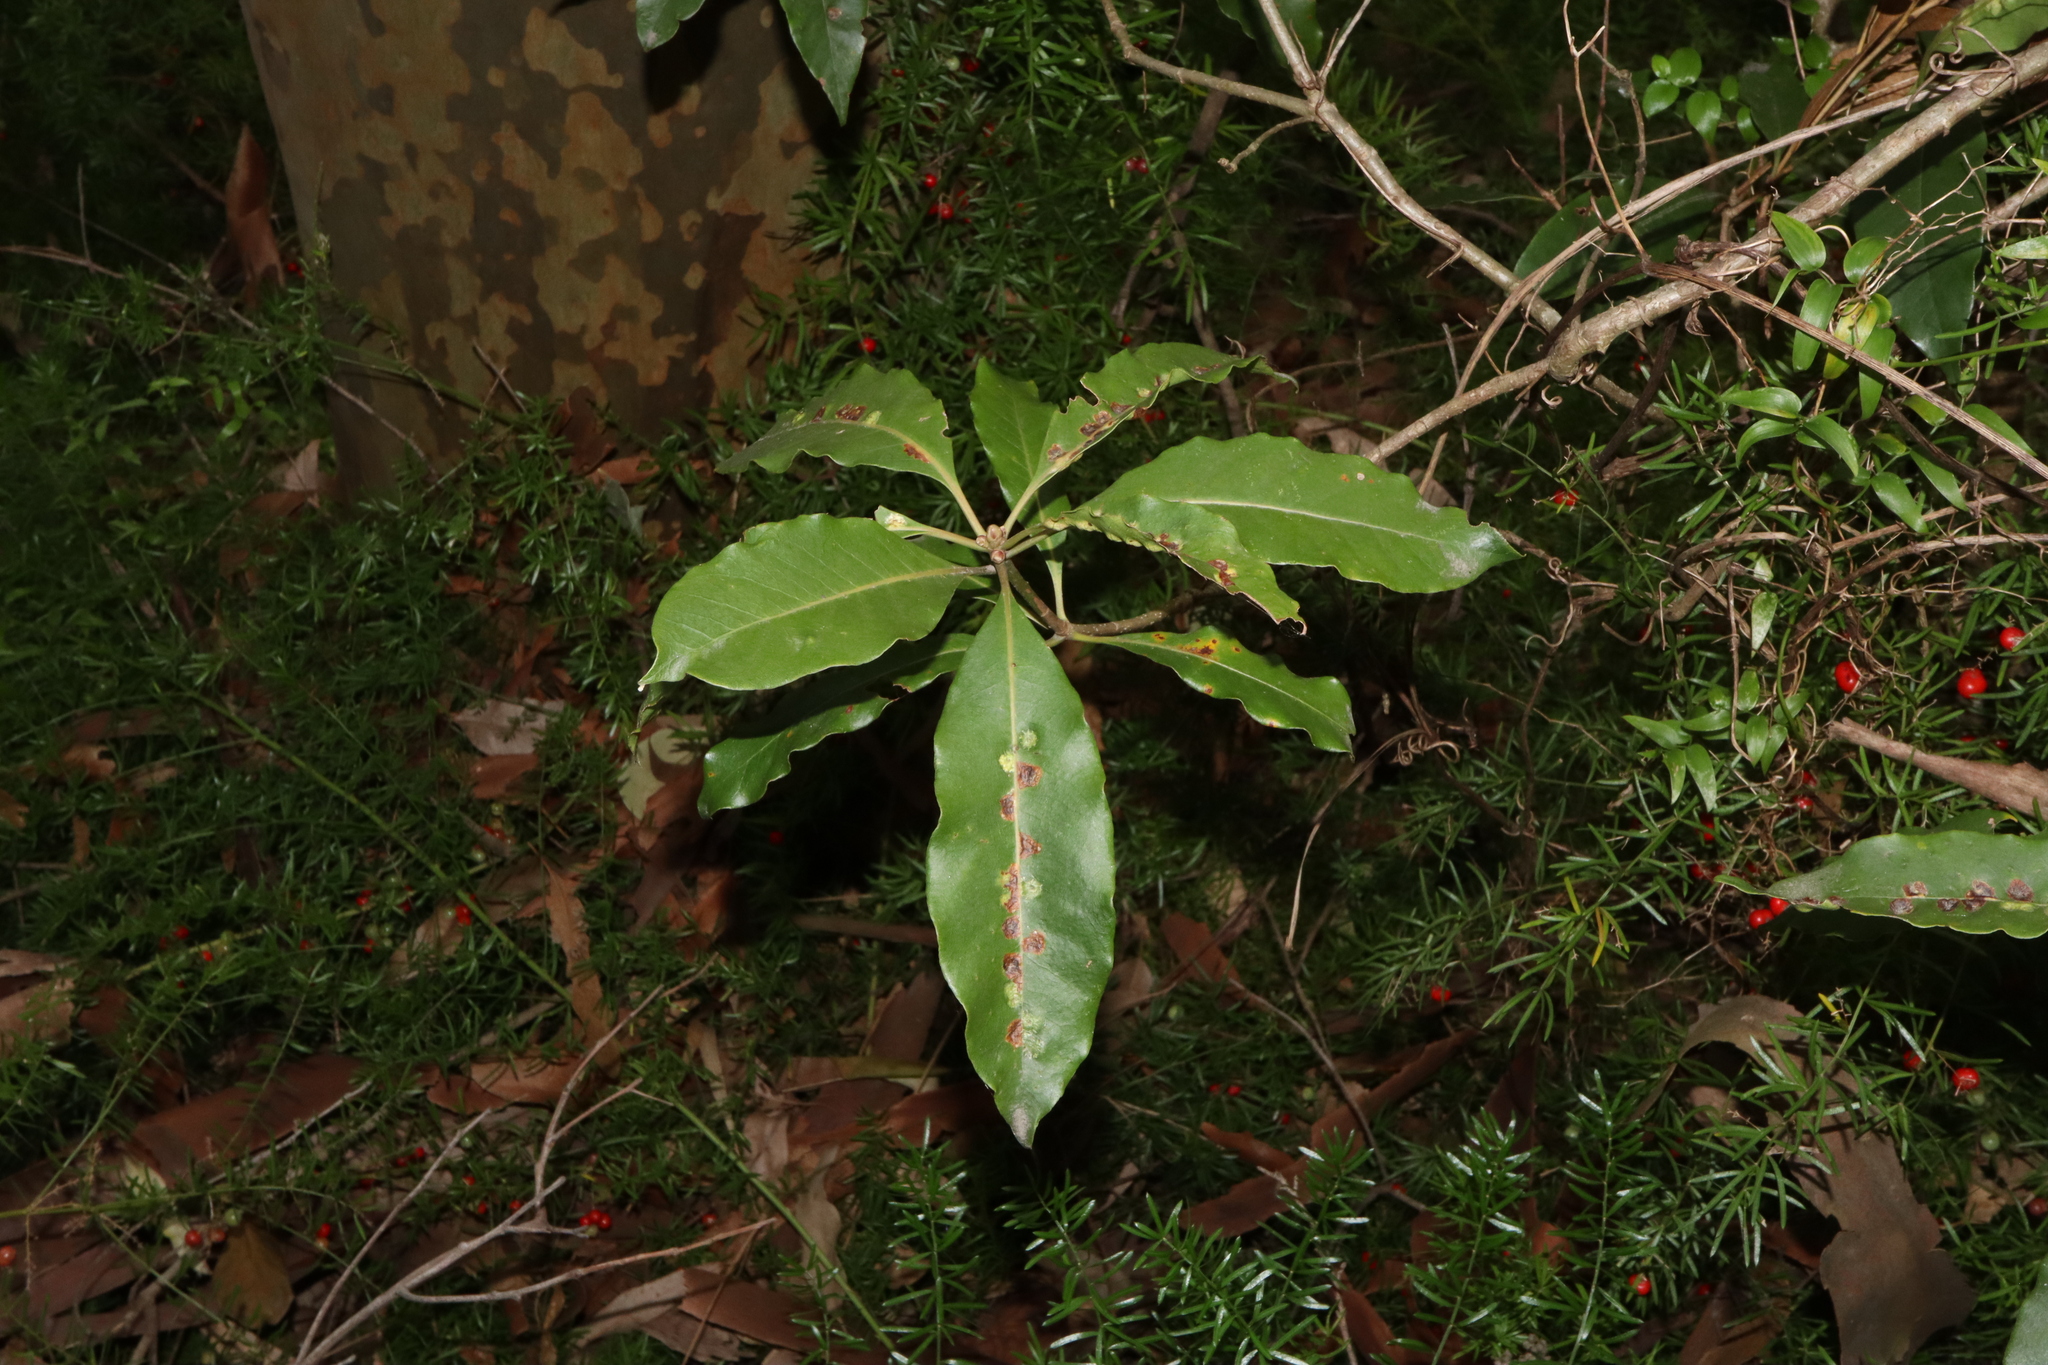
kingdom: Plantae
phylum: Tracheophyta
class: Magnoliopsida
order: Apiales
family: Pittosporaceae
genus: Pittosporum
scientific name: Pittosporum undulatum
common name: Australian cheesewood
